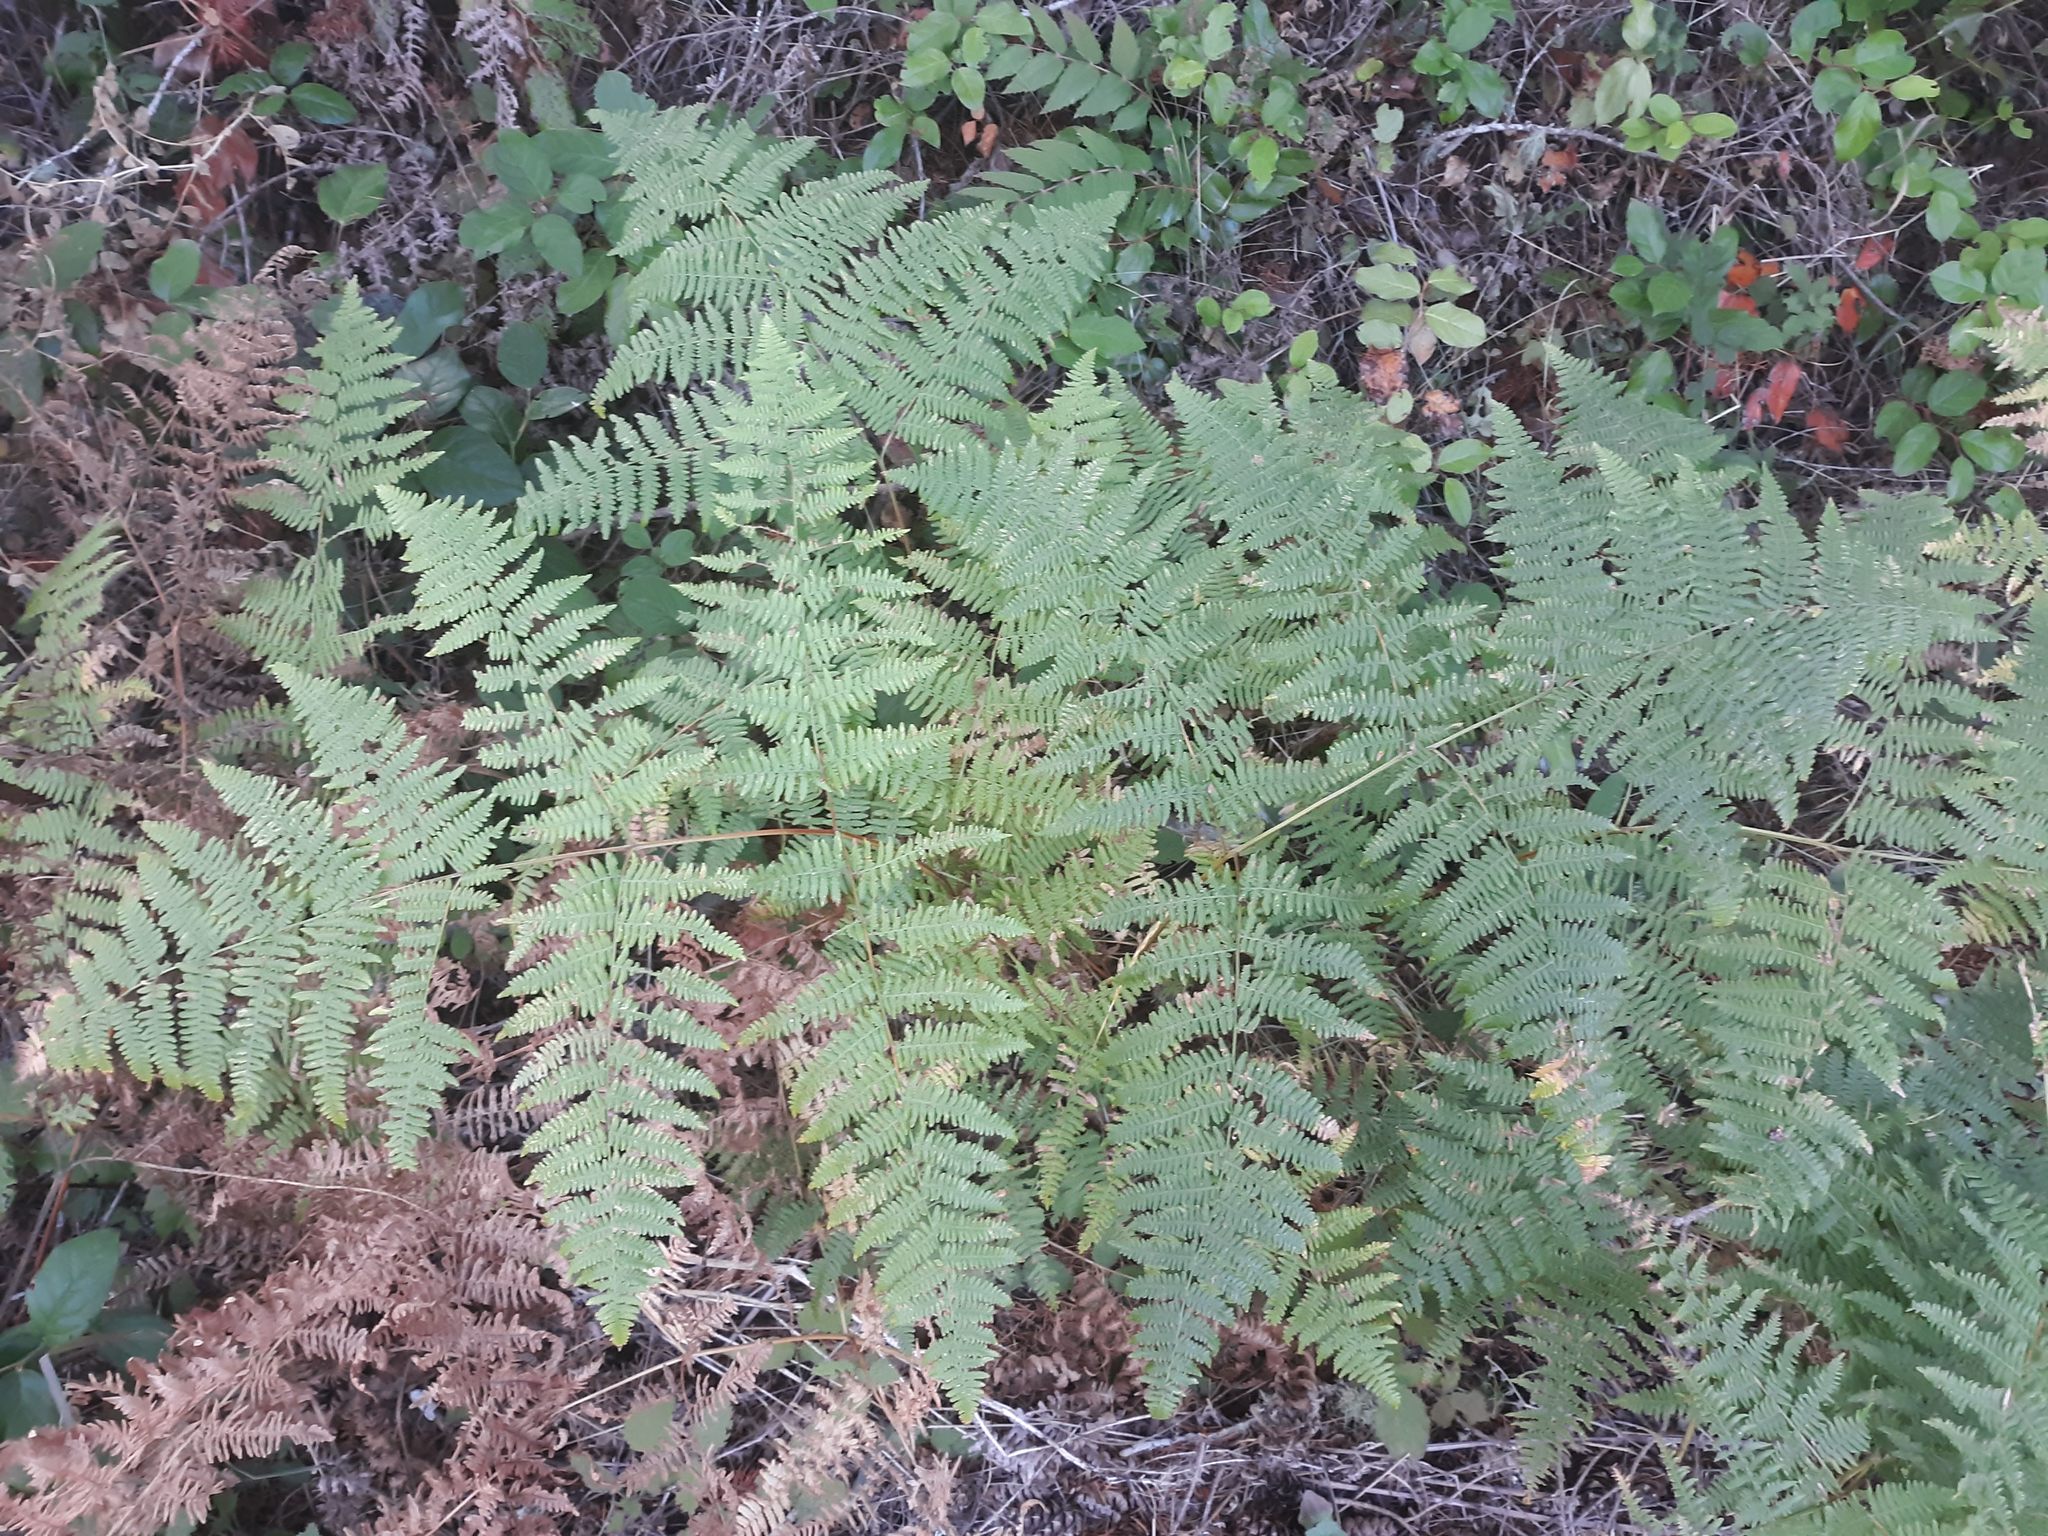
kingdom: Plantae
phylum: Tracheophyta
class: Polypodiopsida
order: Polypodiales
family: Dennstaedtiaceae
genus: Pteridium
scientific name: Pteridium aquilinum
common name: Bracken
